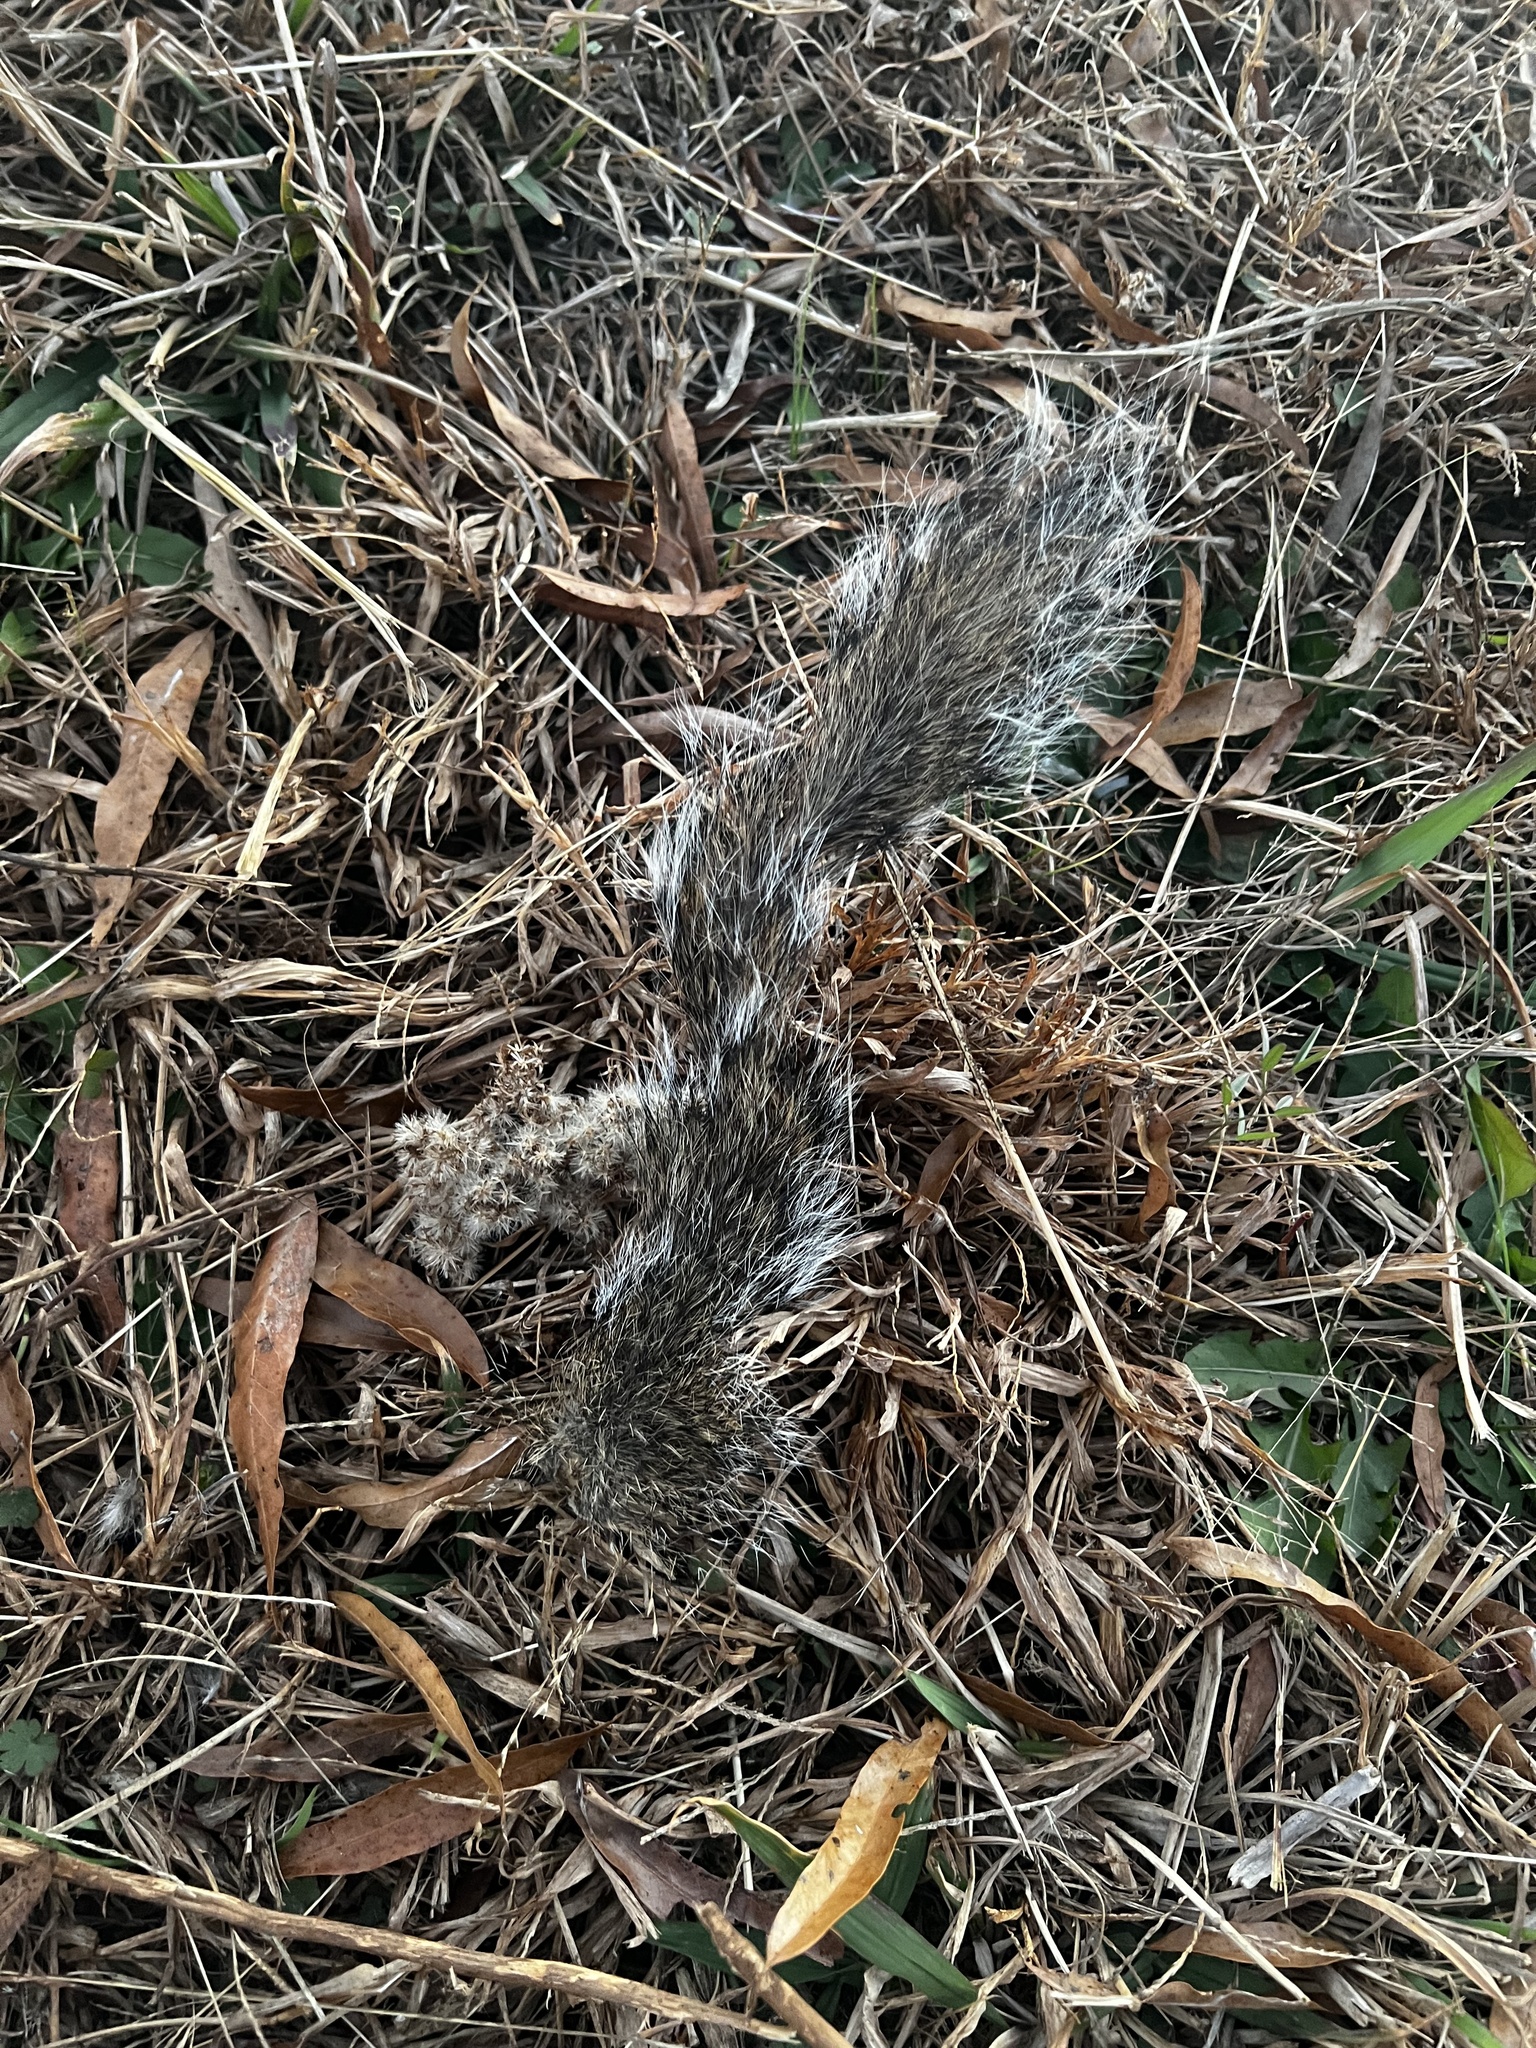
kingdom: Animalia
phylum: Chordata
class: Mammalia
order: Rodentia
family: Sciuridae
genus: Sciurus
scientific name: Sciurus carolinensis
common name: Eastern gray squirrel
